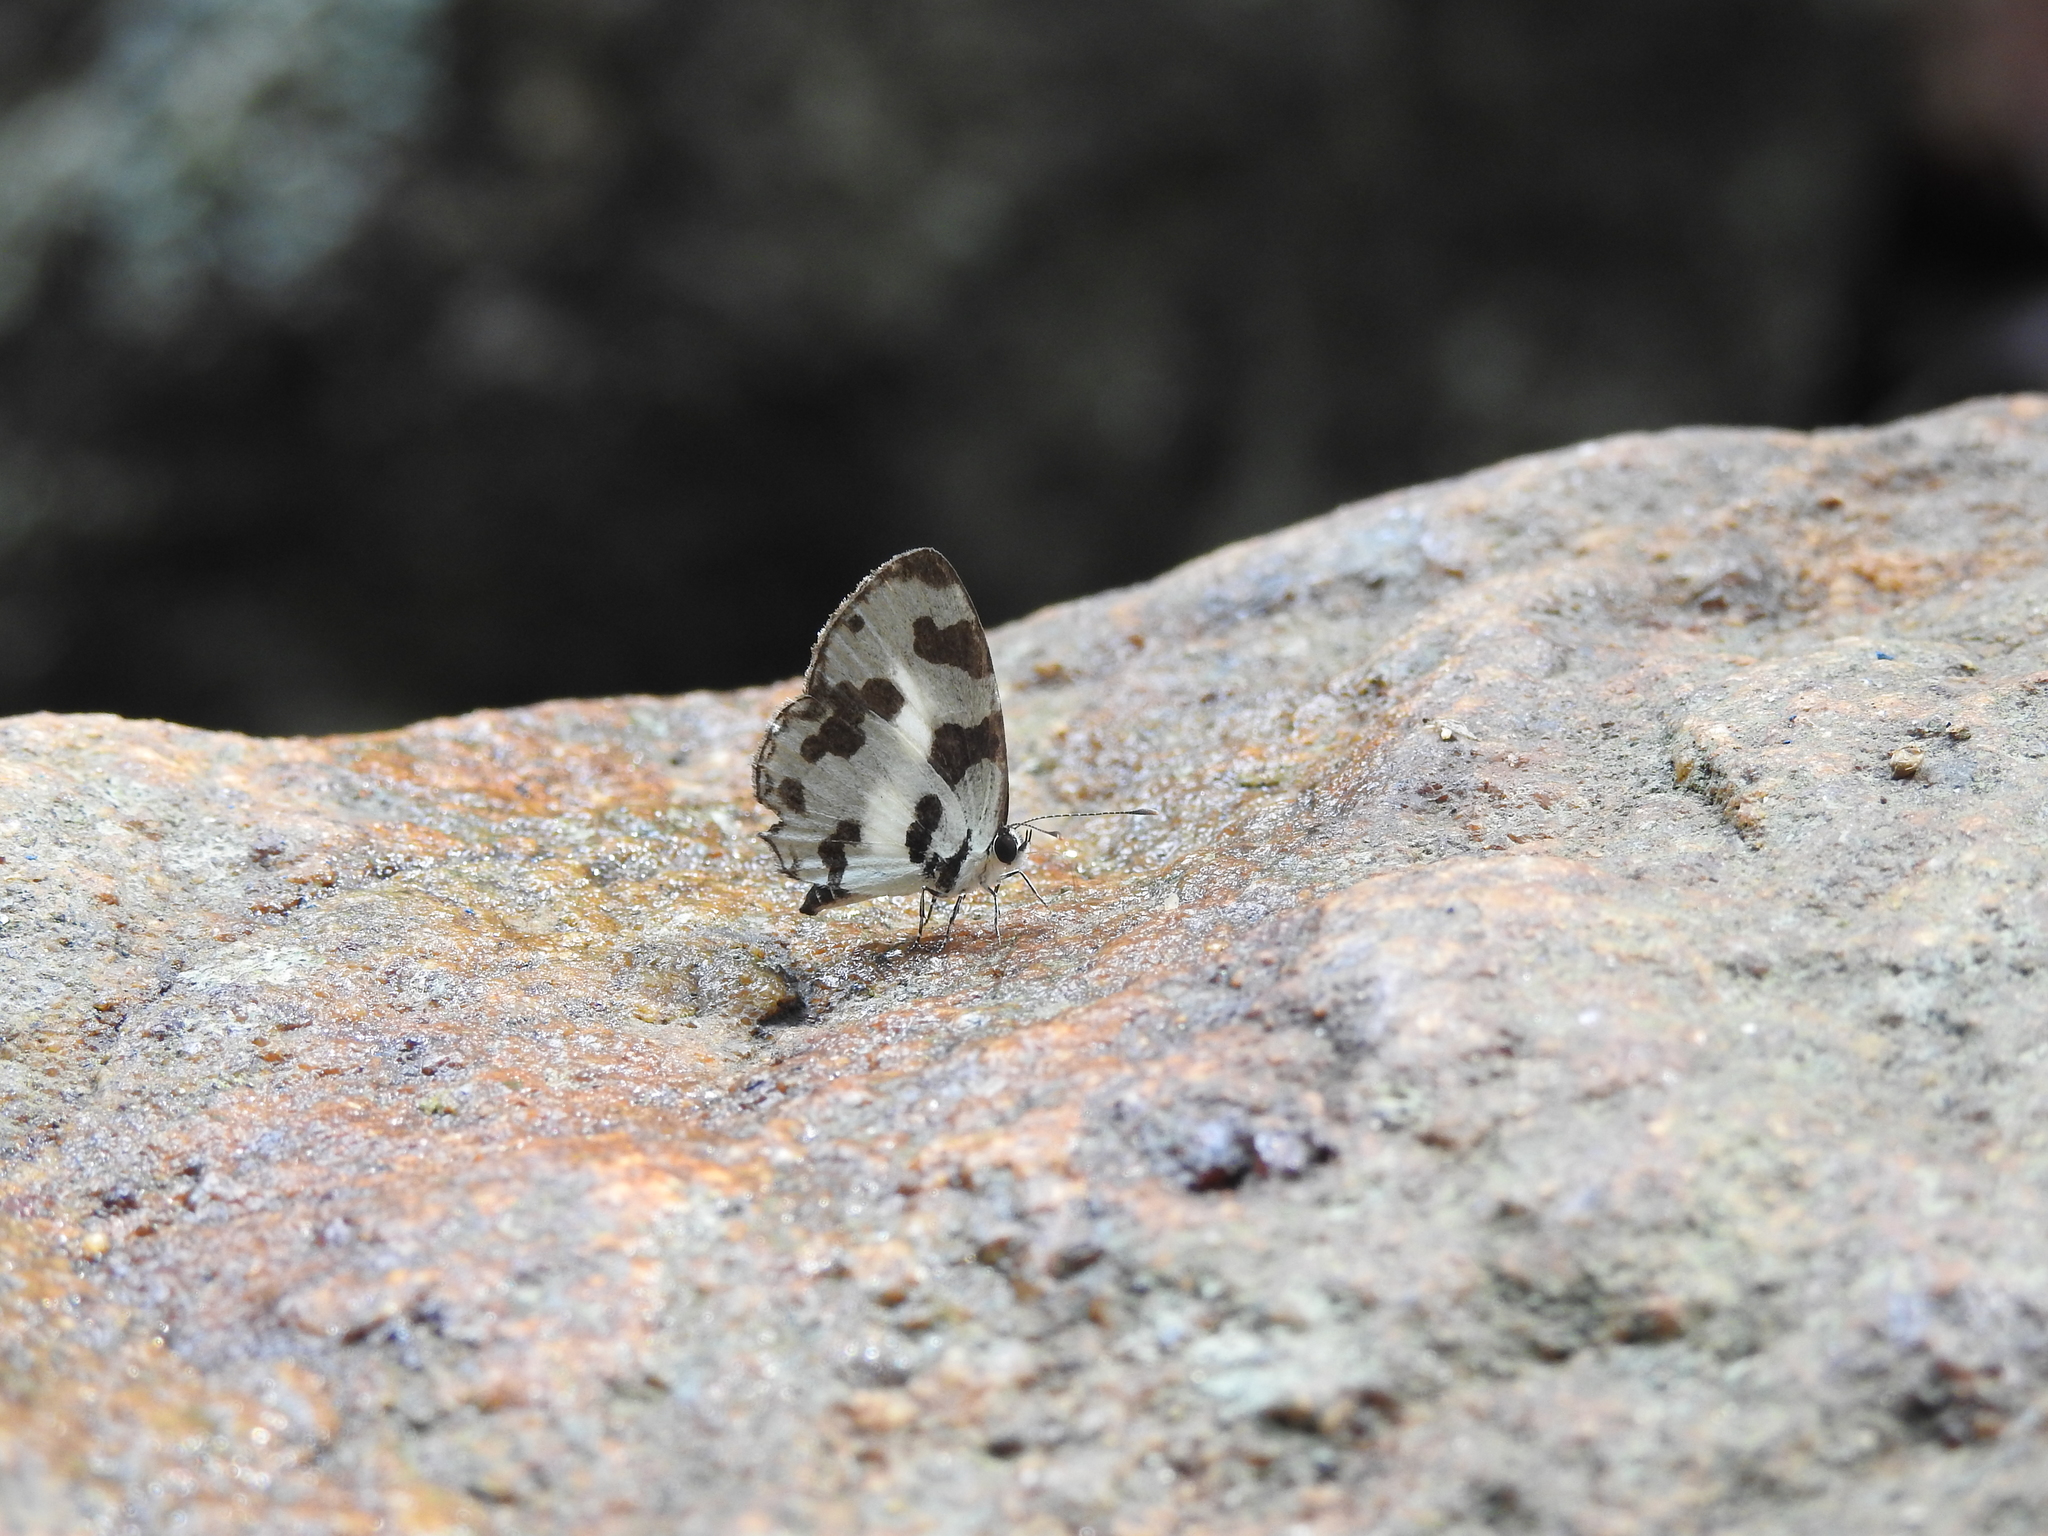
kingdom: Animalia
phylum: Arthropoda
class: Insecta
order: Lepidoptera
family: Lycaenidae
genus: Caleta
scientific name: Caleta decidia
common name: Angled pierrot
